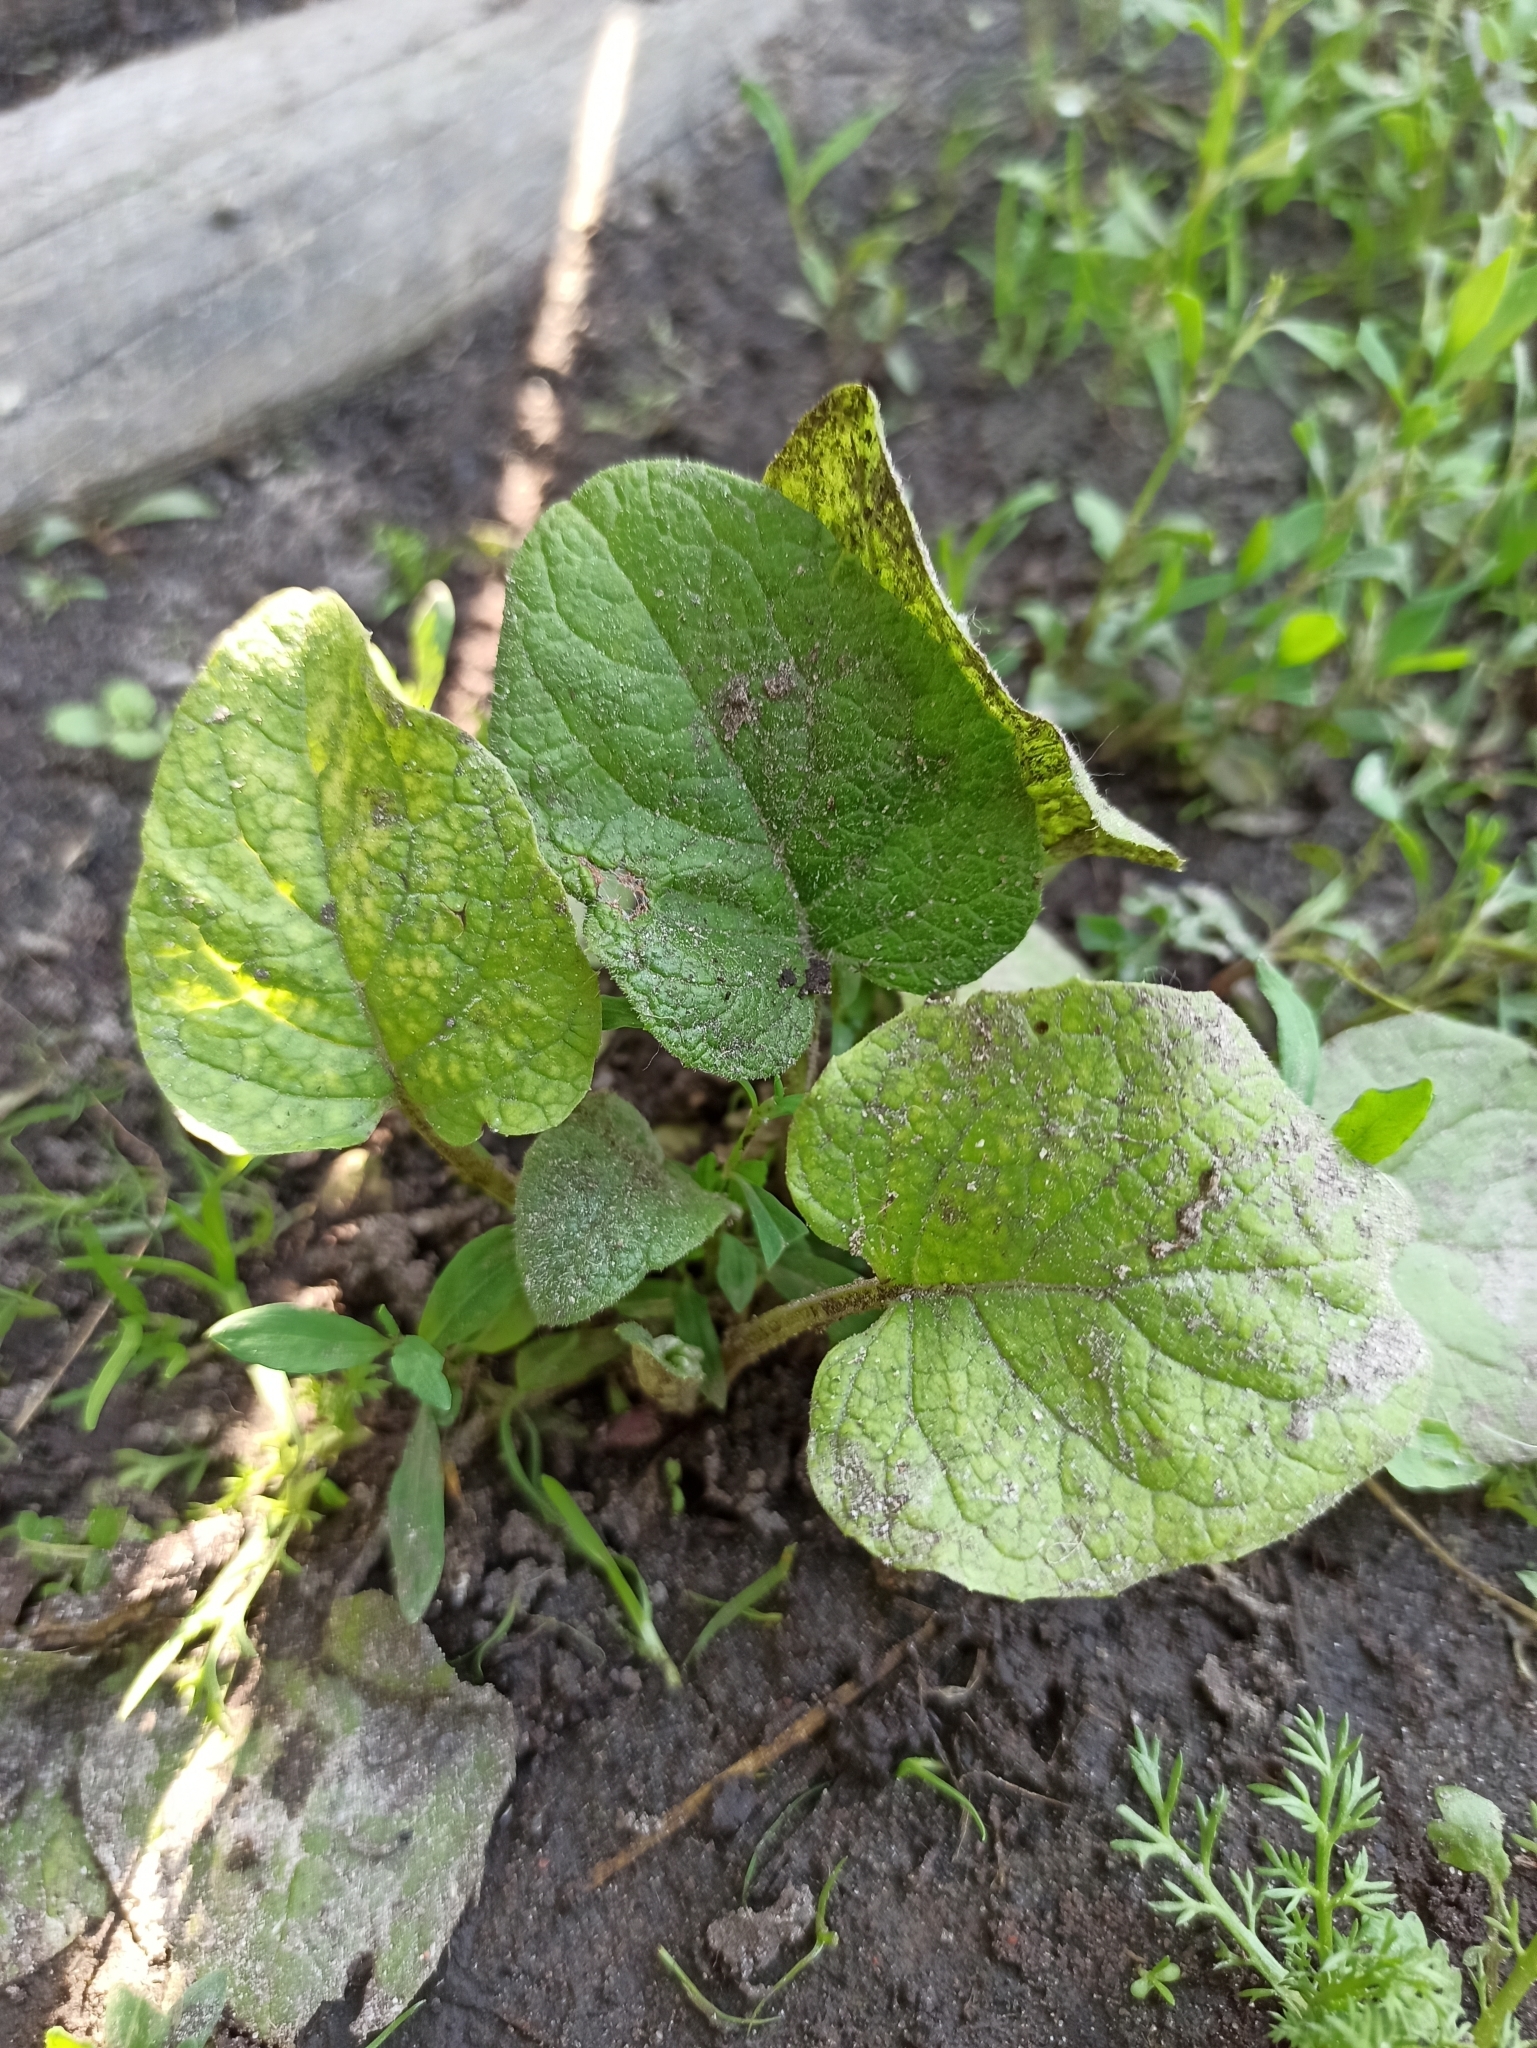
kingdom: Plantae
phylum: Tracheophyta
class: Magnoliopsida
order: Asterales
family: Asteraceae
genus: Arctium
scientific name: Arctium
